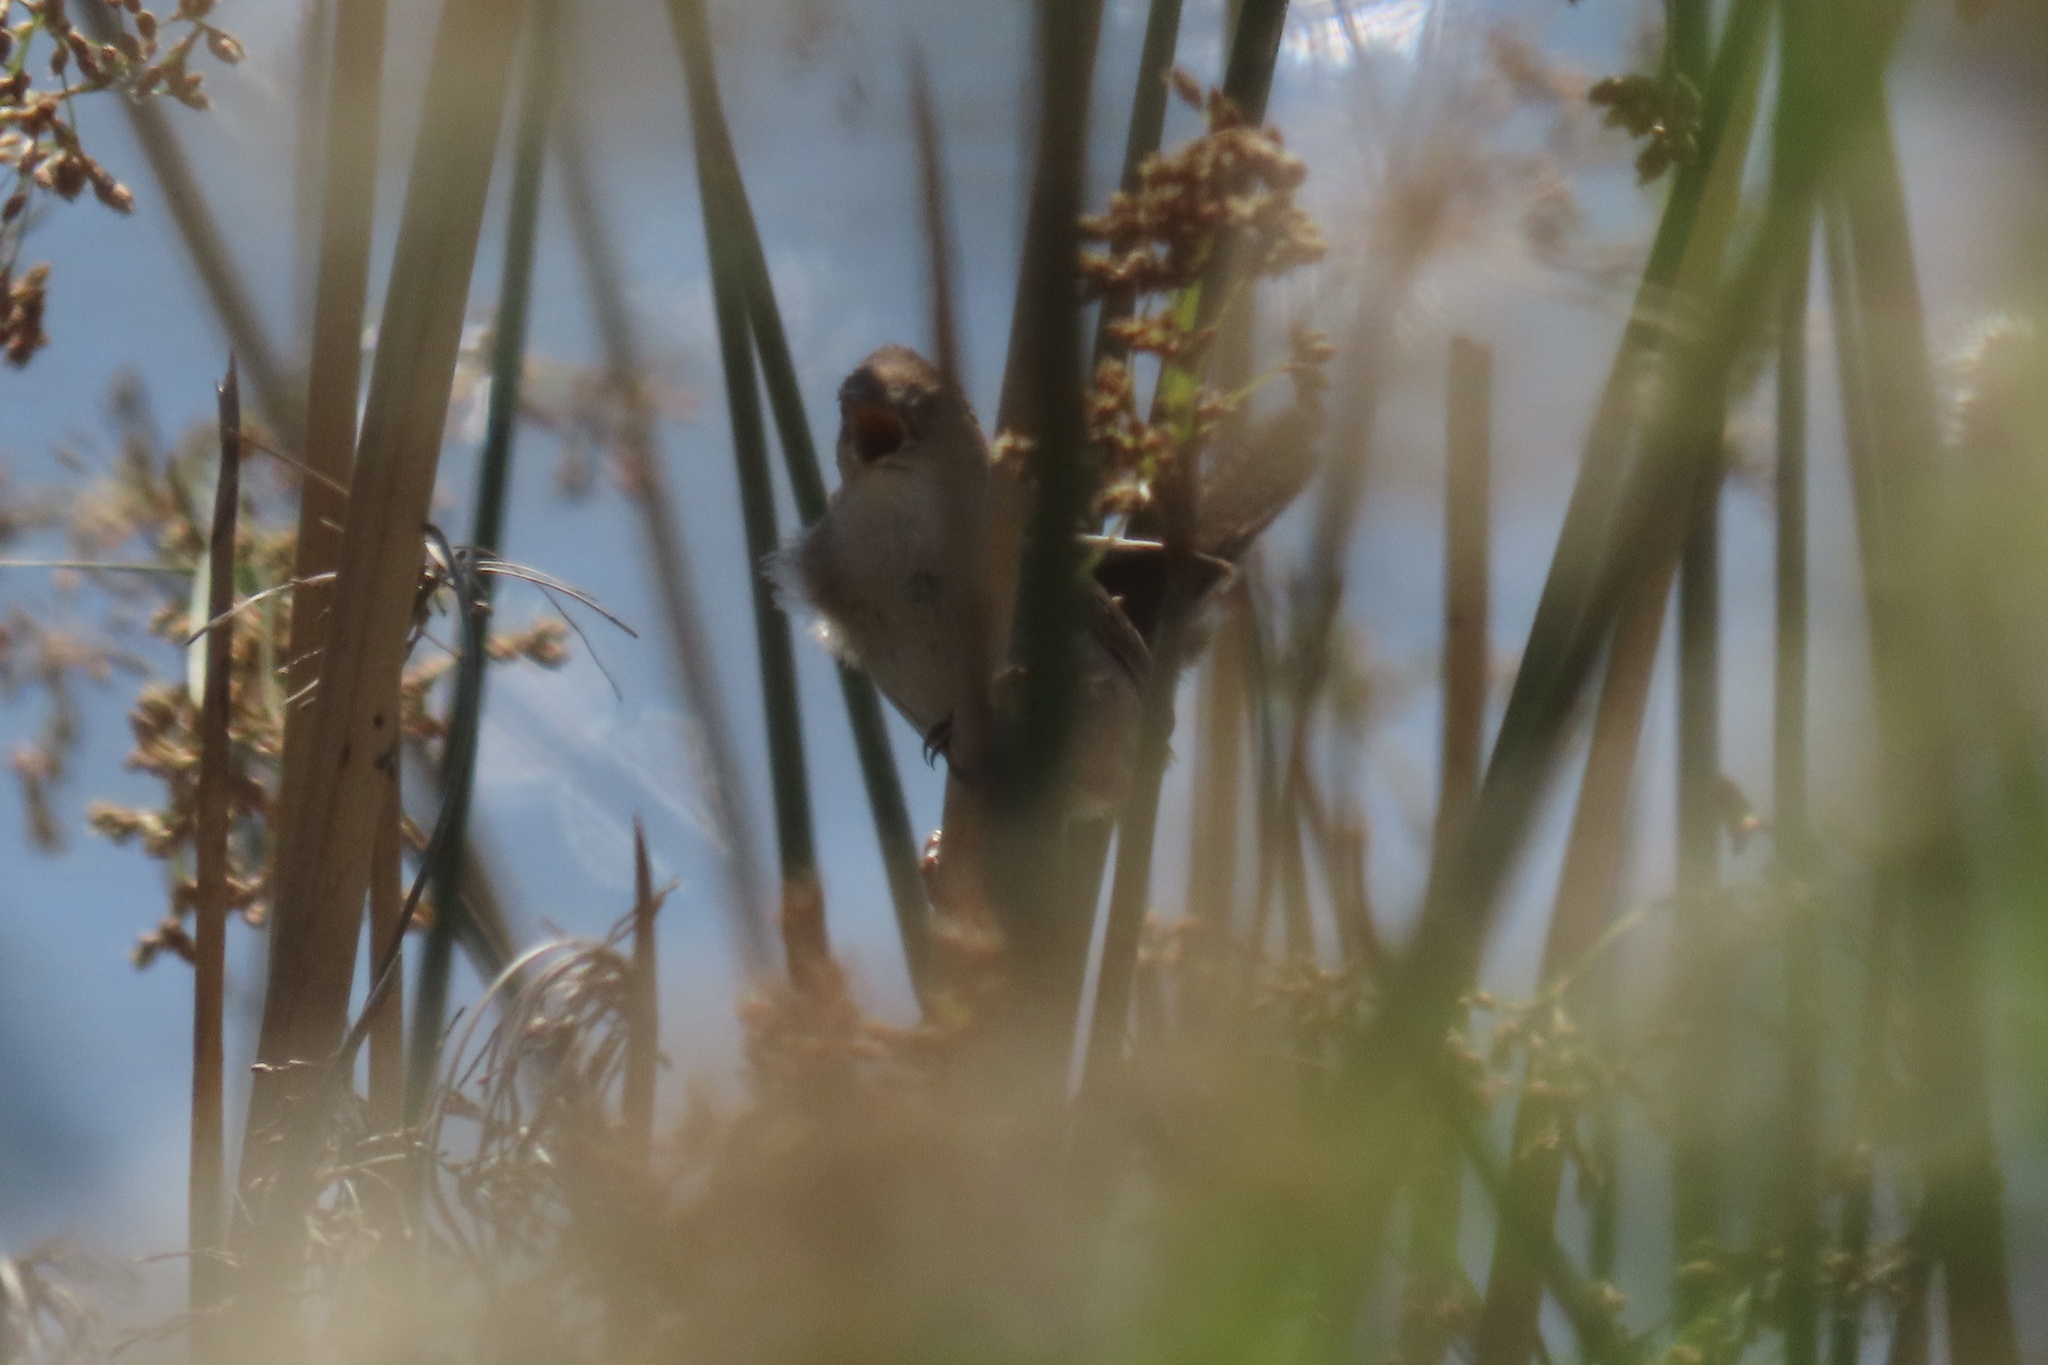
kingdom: Animalia
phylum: Chordata
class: Aves
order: Passeriformes
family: Troglodytidae
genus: Cistothorus
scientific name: Cistothorus palustris
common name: Marsh wren
